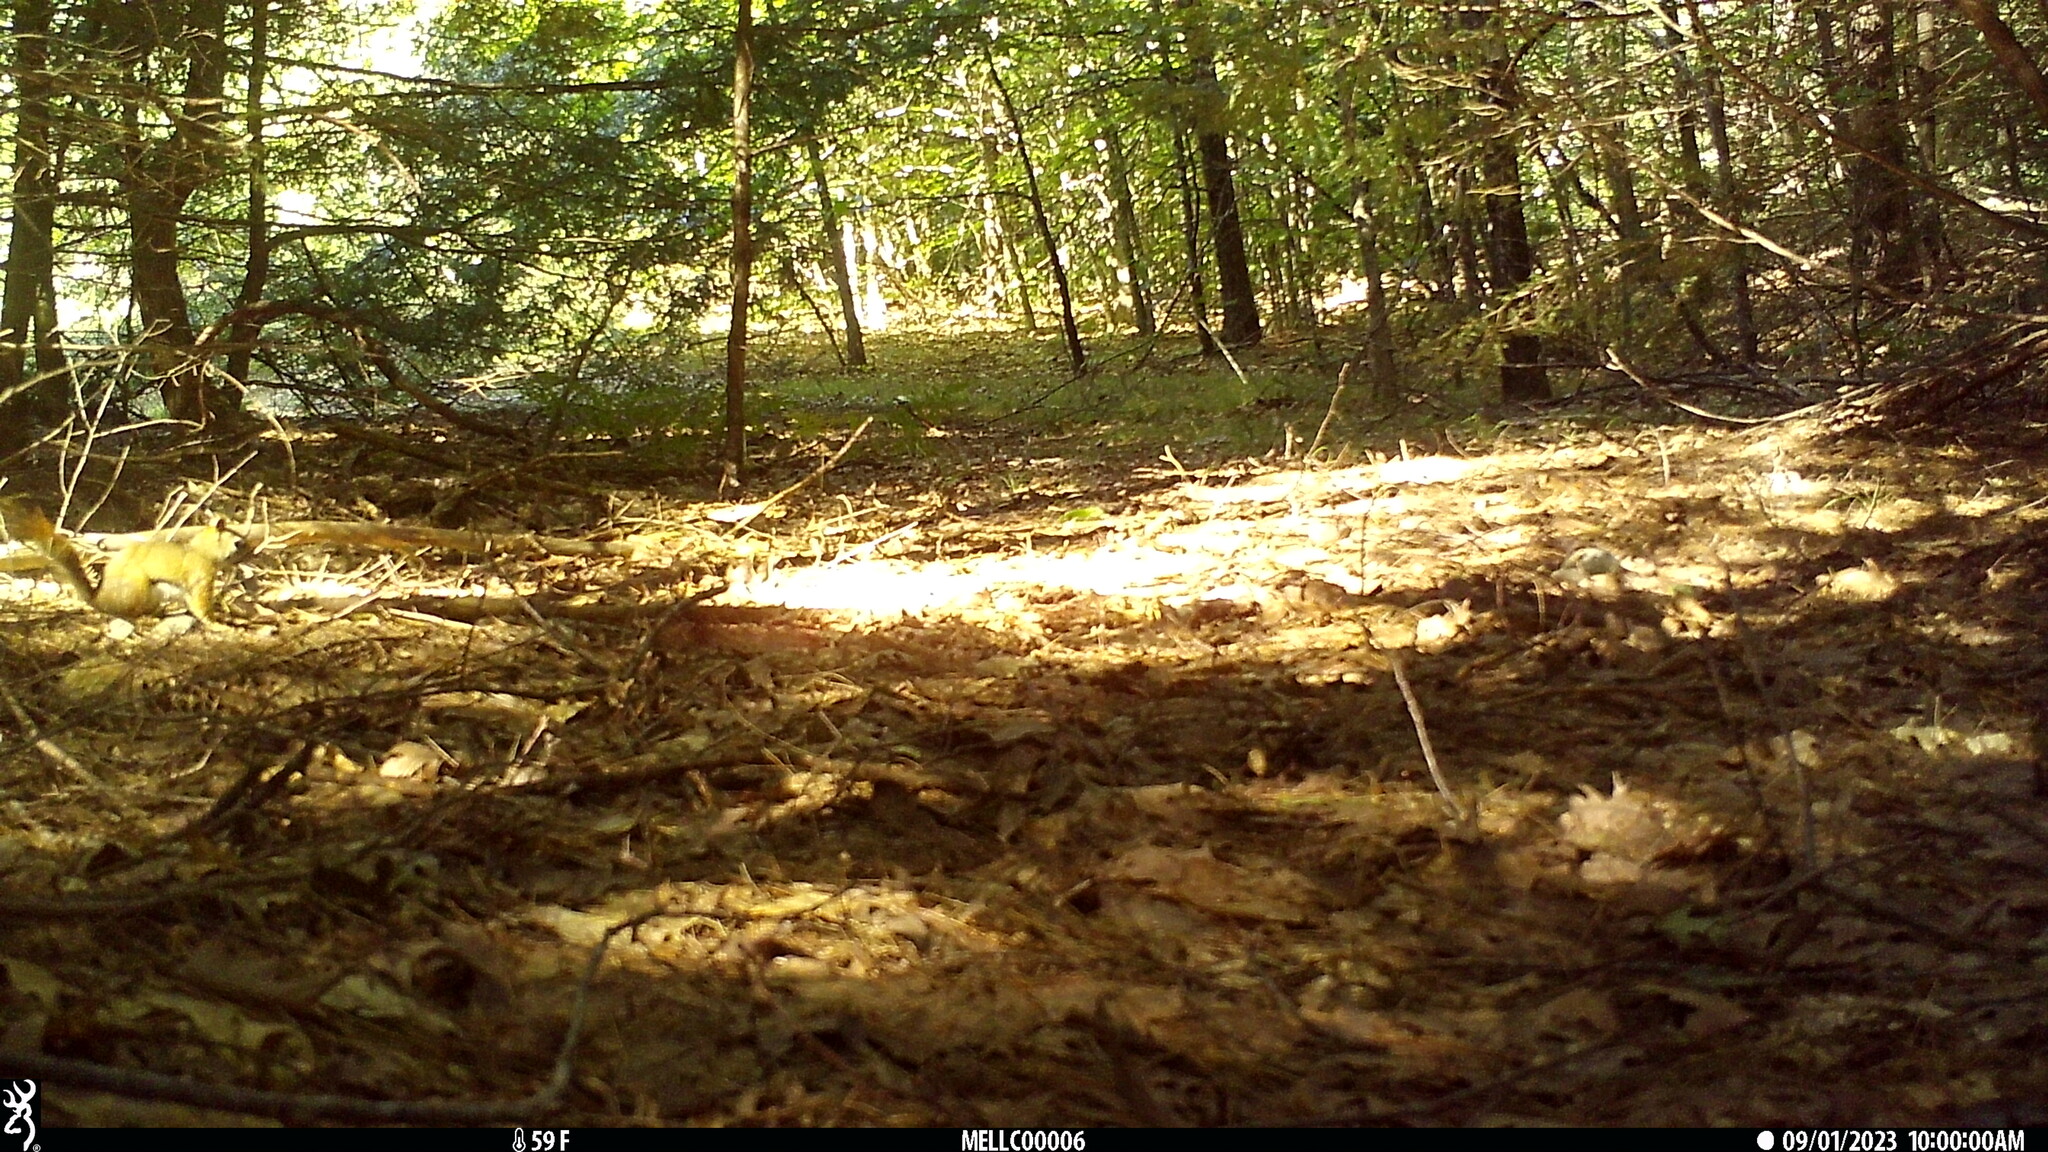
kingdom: Animalia
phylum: Chordata
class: Mammalia
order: Rodentia
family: Sciuridae
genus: Tamiasciurus
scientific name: Tamiasciurus hudsonicus
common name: Red squirrel
